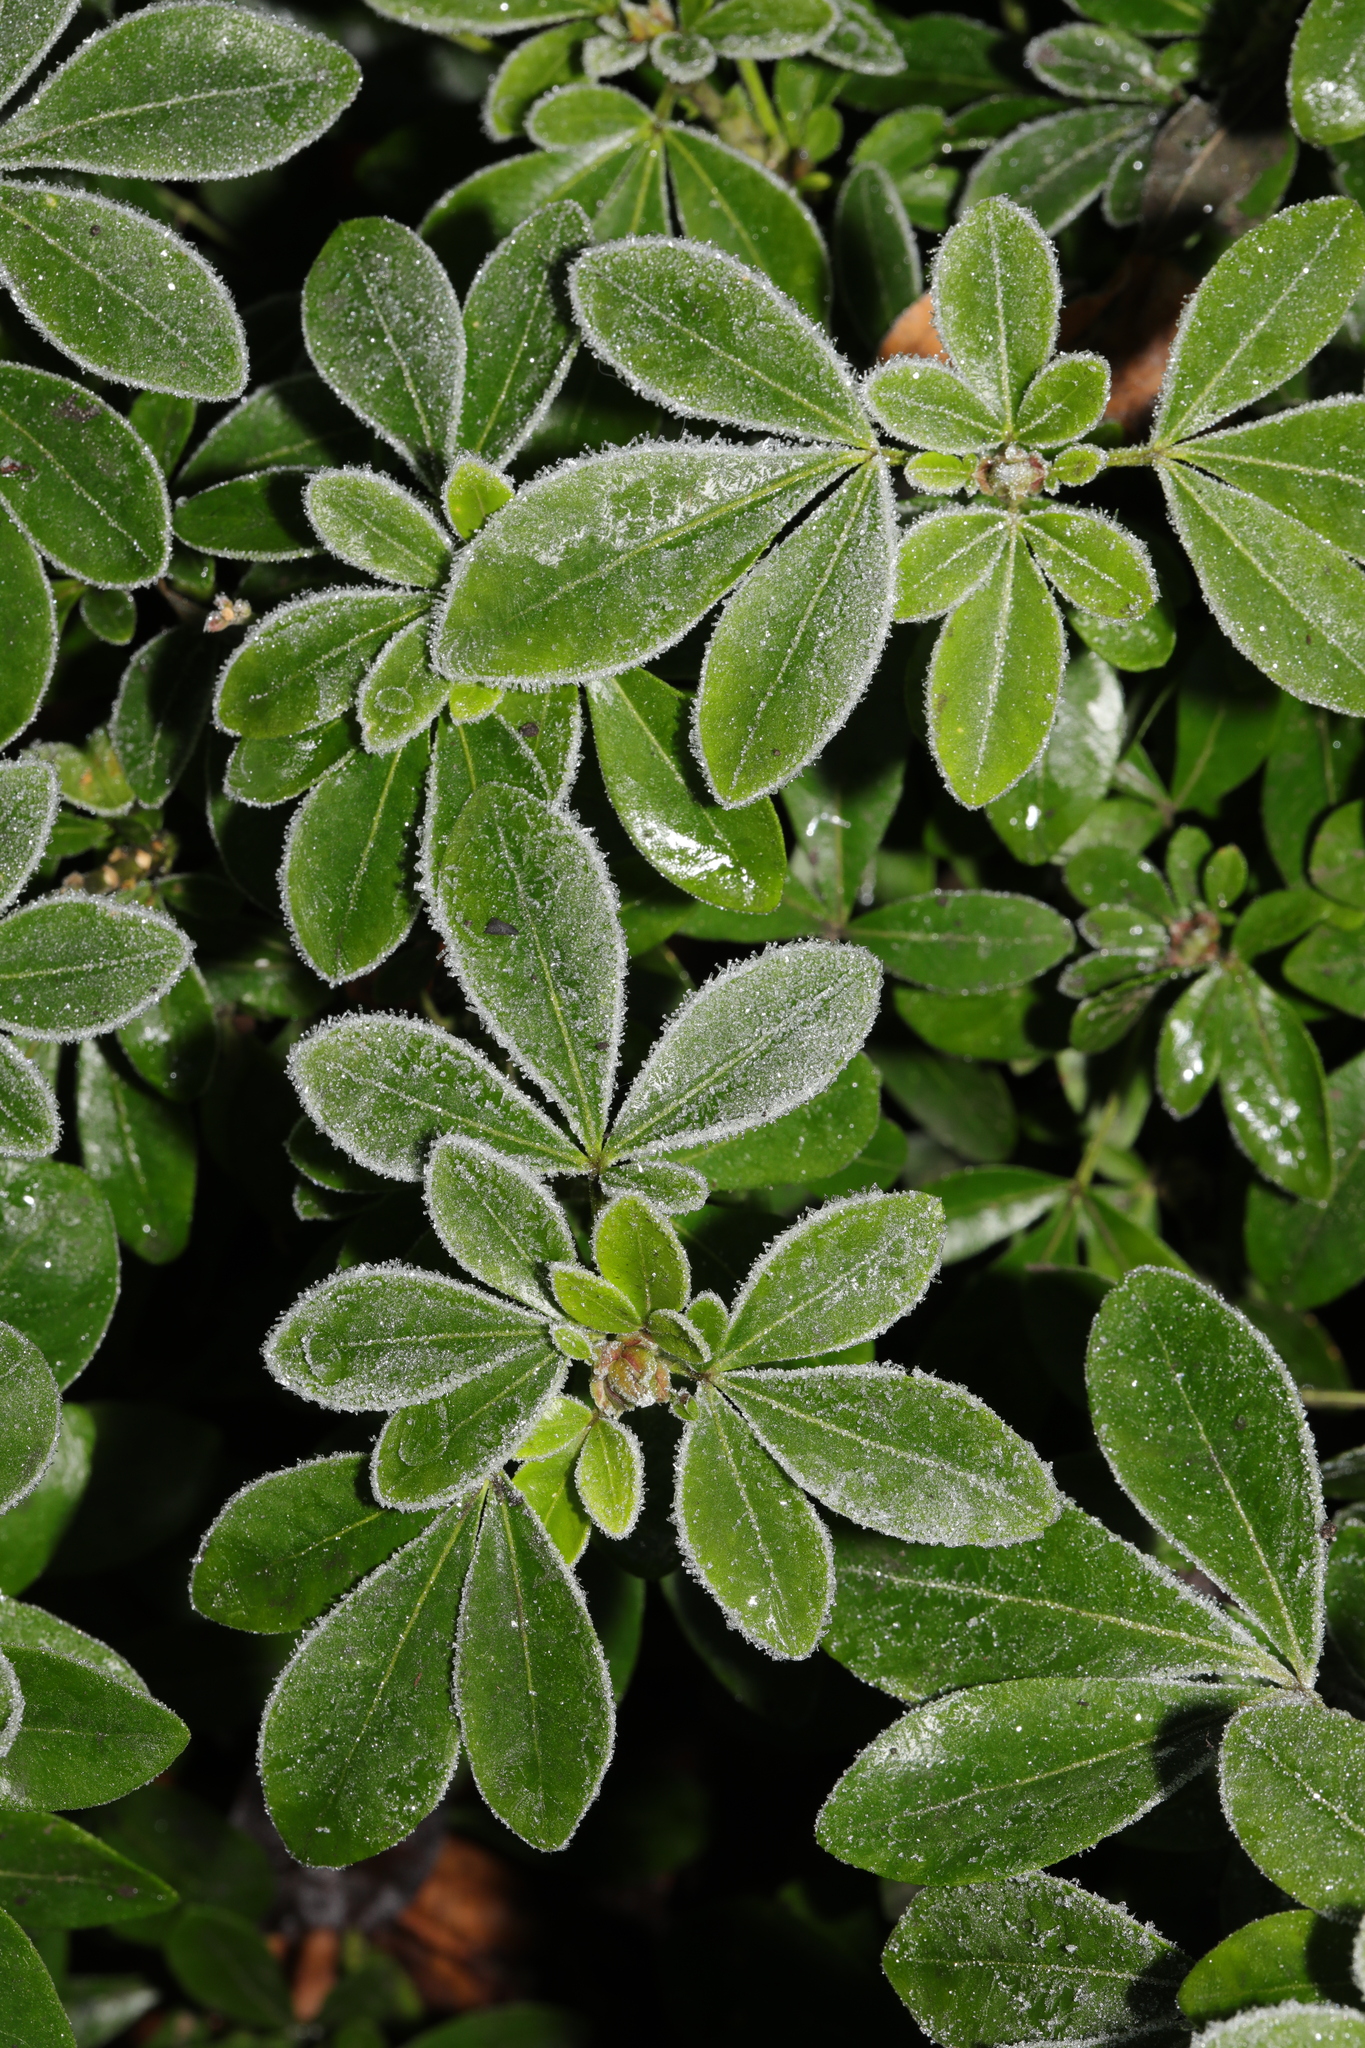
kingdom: Plantae
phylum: Tracheophyta
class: Magnoliopsida
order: Sapindales
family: Rutaceae
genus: Choisya
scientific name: Choisya ternata
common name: Mexican orange
